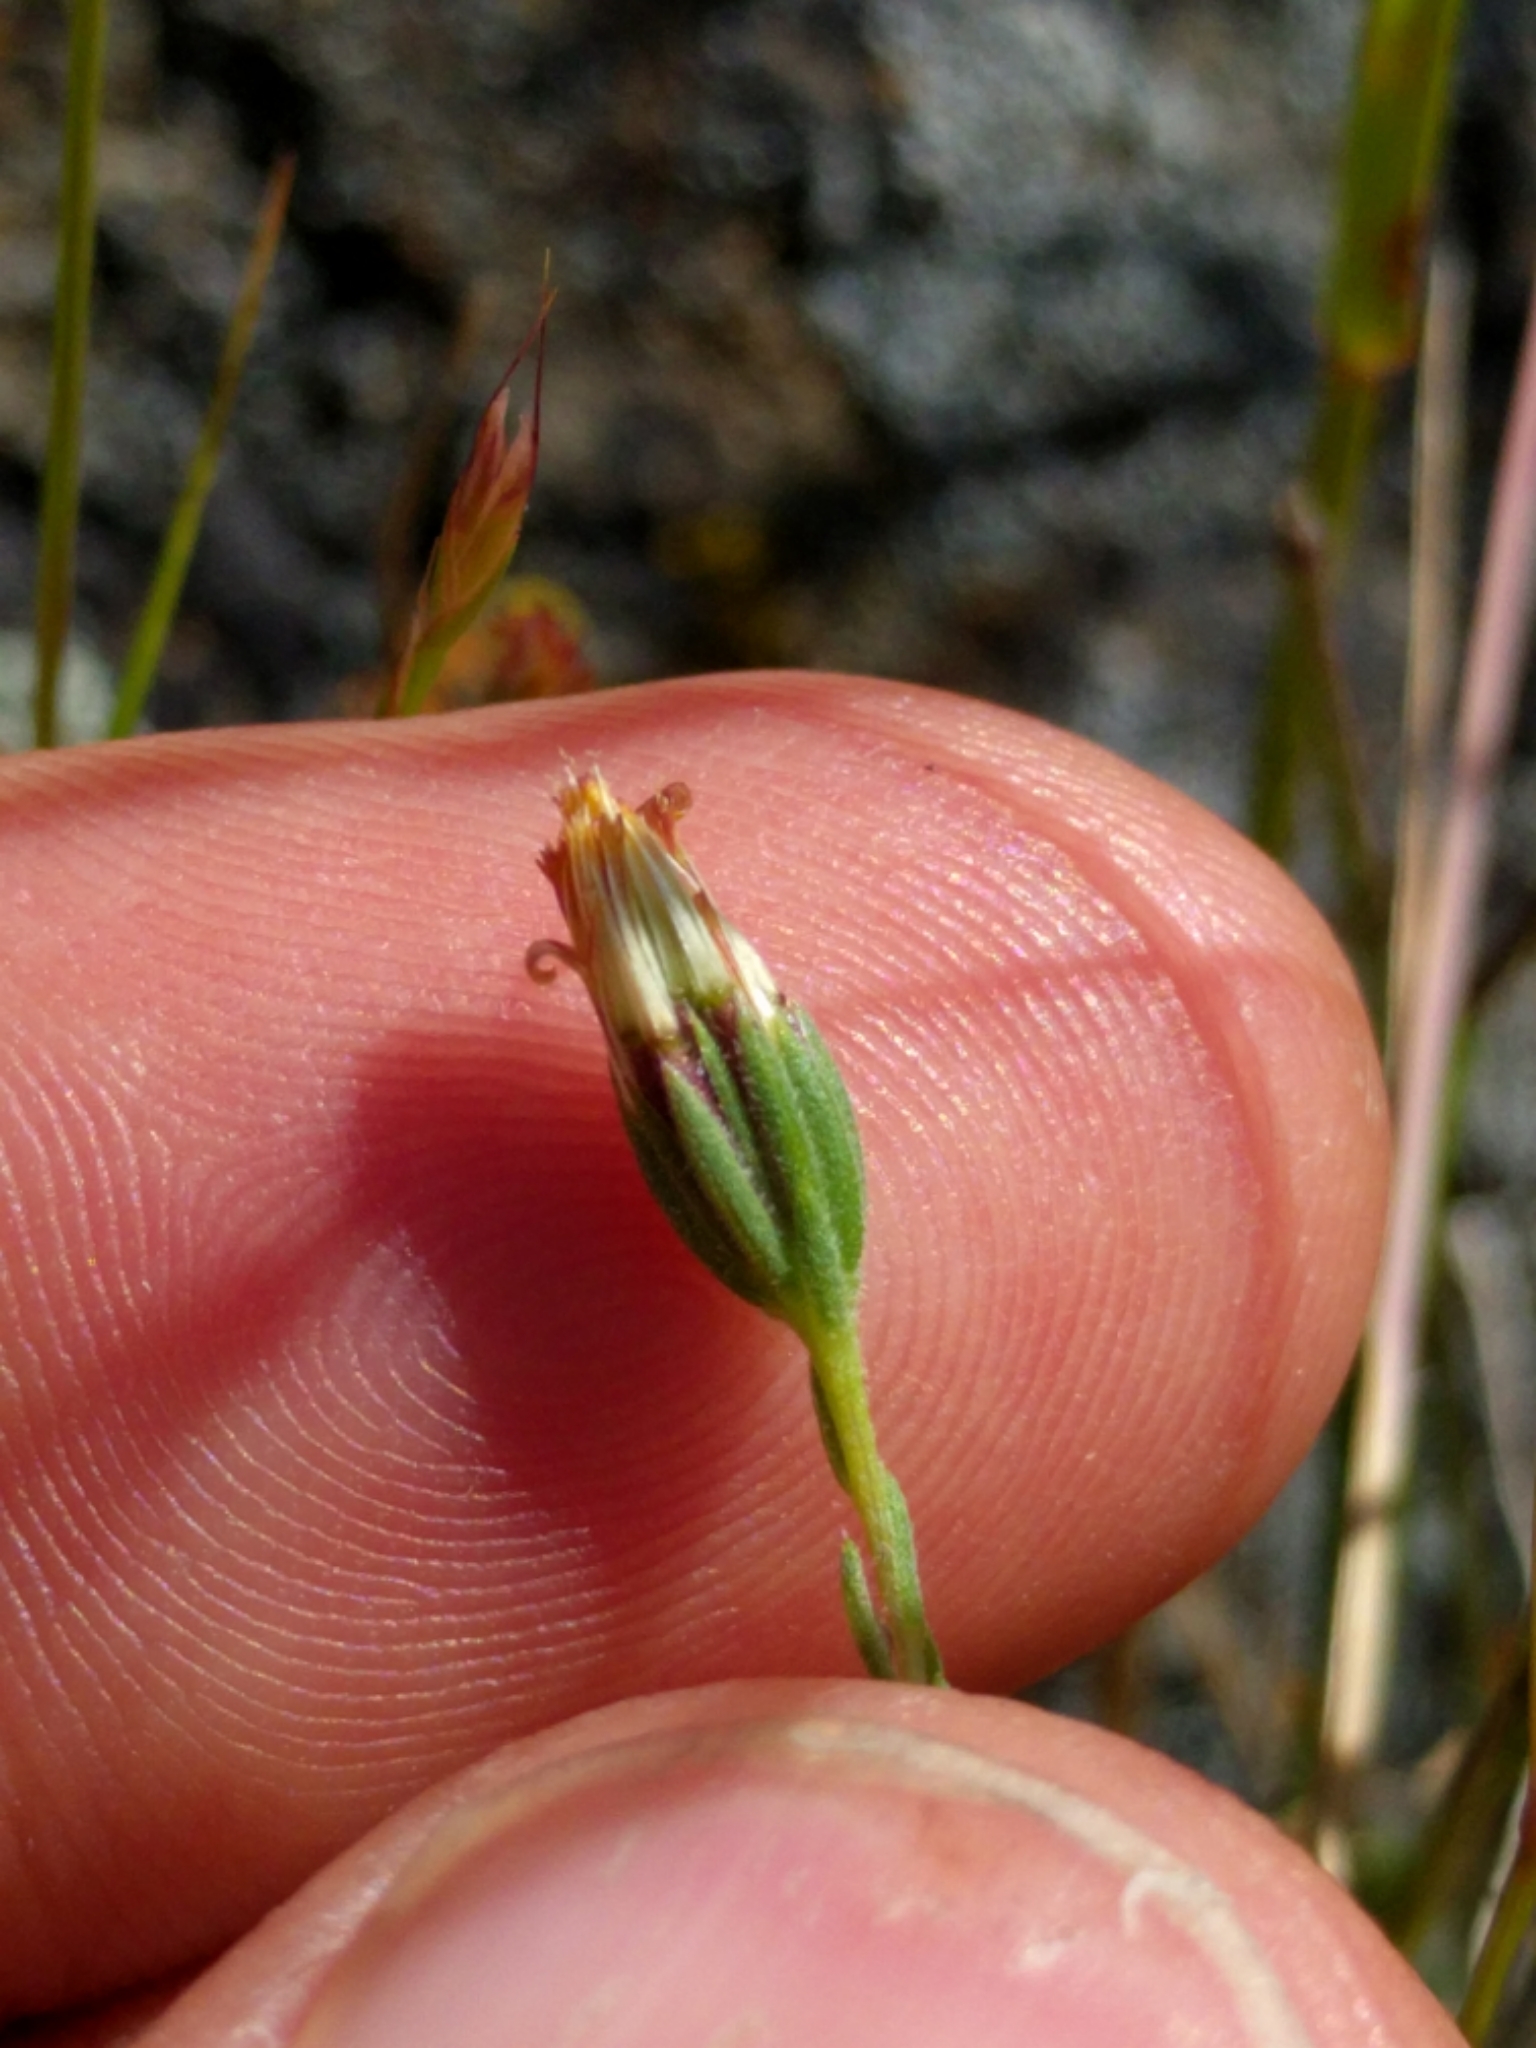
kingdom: Plantae
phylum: Tracheophyta
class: Magnoliopsida
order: Asterales
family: Asteraceae
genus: Rigiopappus
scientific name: Rigiopappus leptocladus
